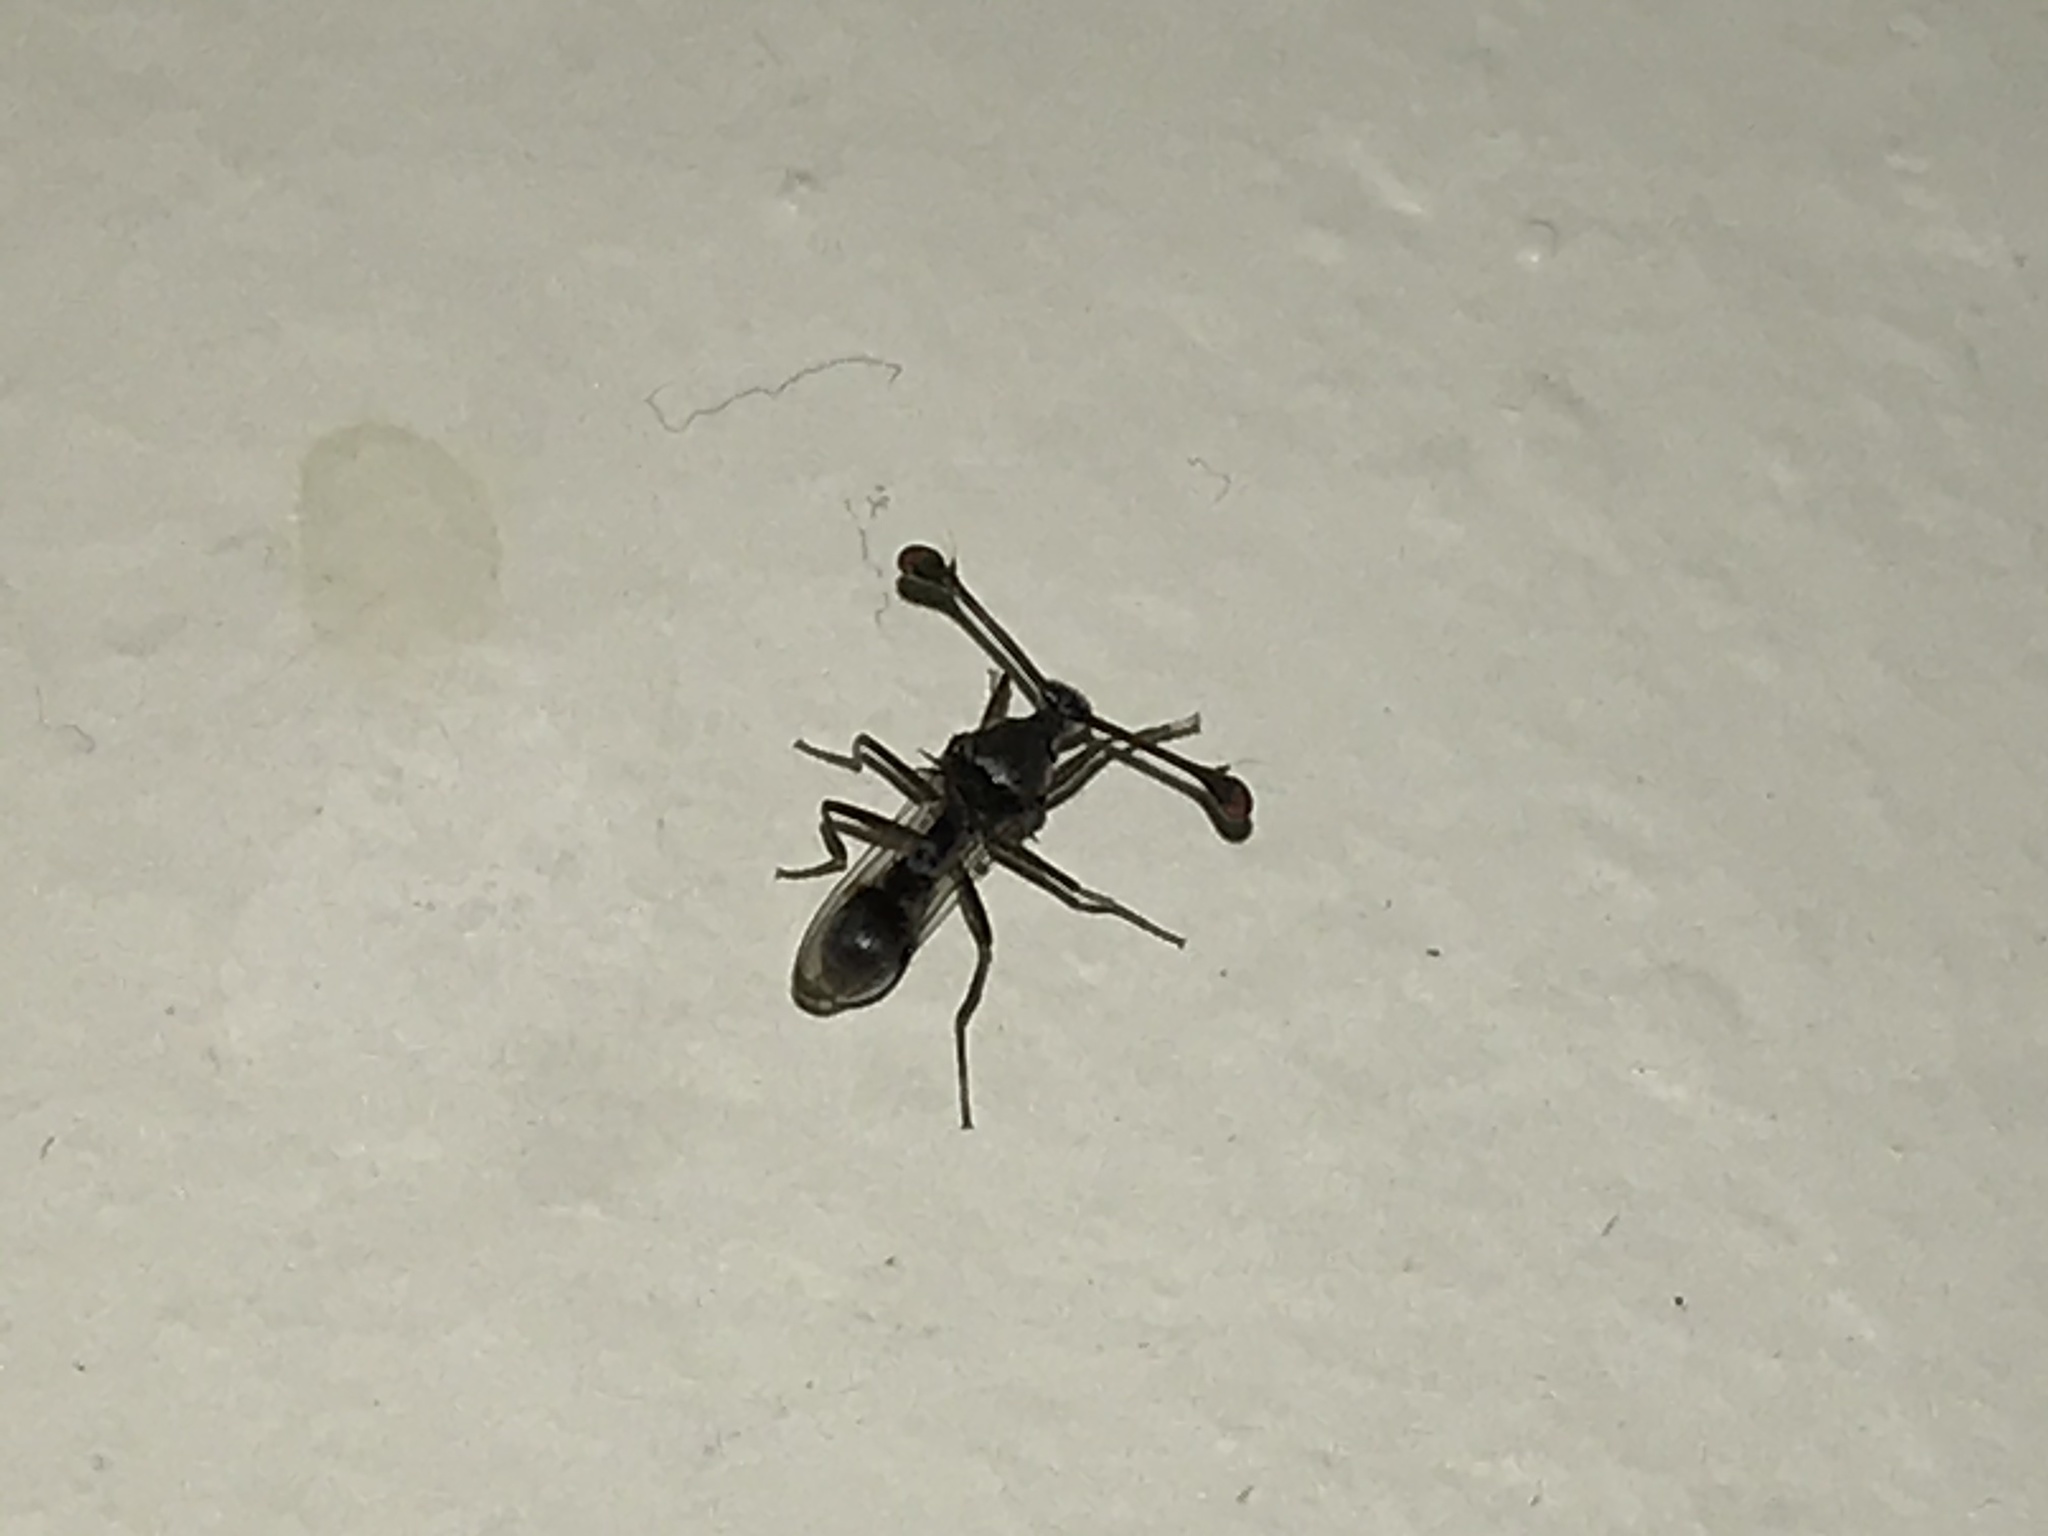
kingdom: Animalia
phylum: Arthropoda
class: Insecta
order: Diptera
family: Diopsidae
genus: Chaetodiopsis
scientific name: Chaetodiopsis
